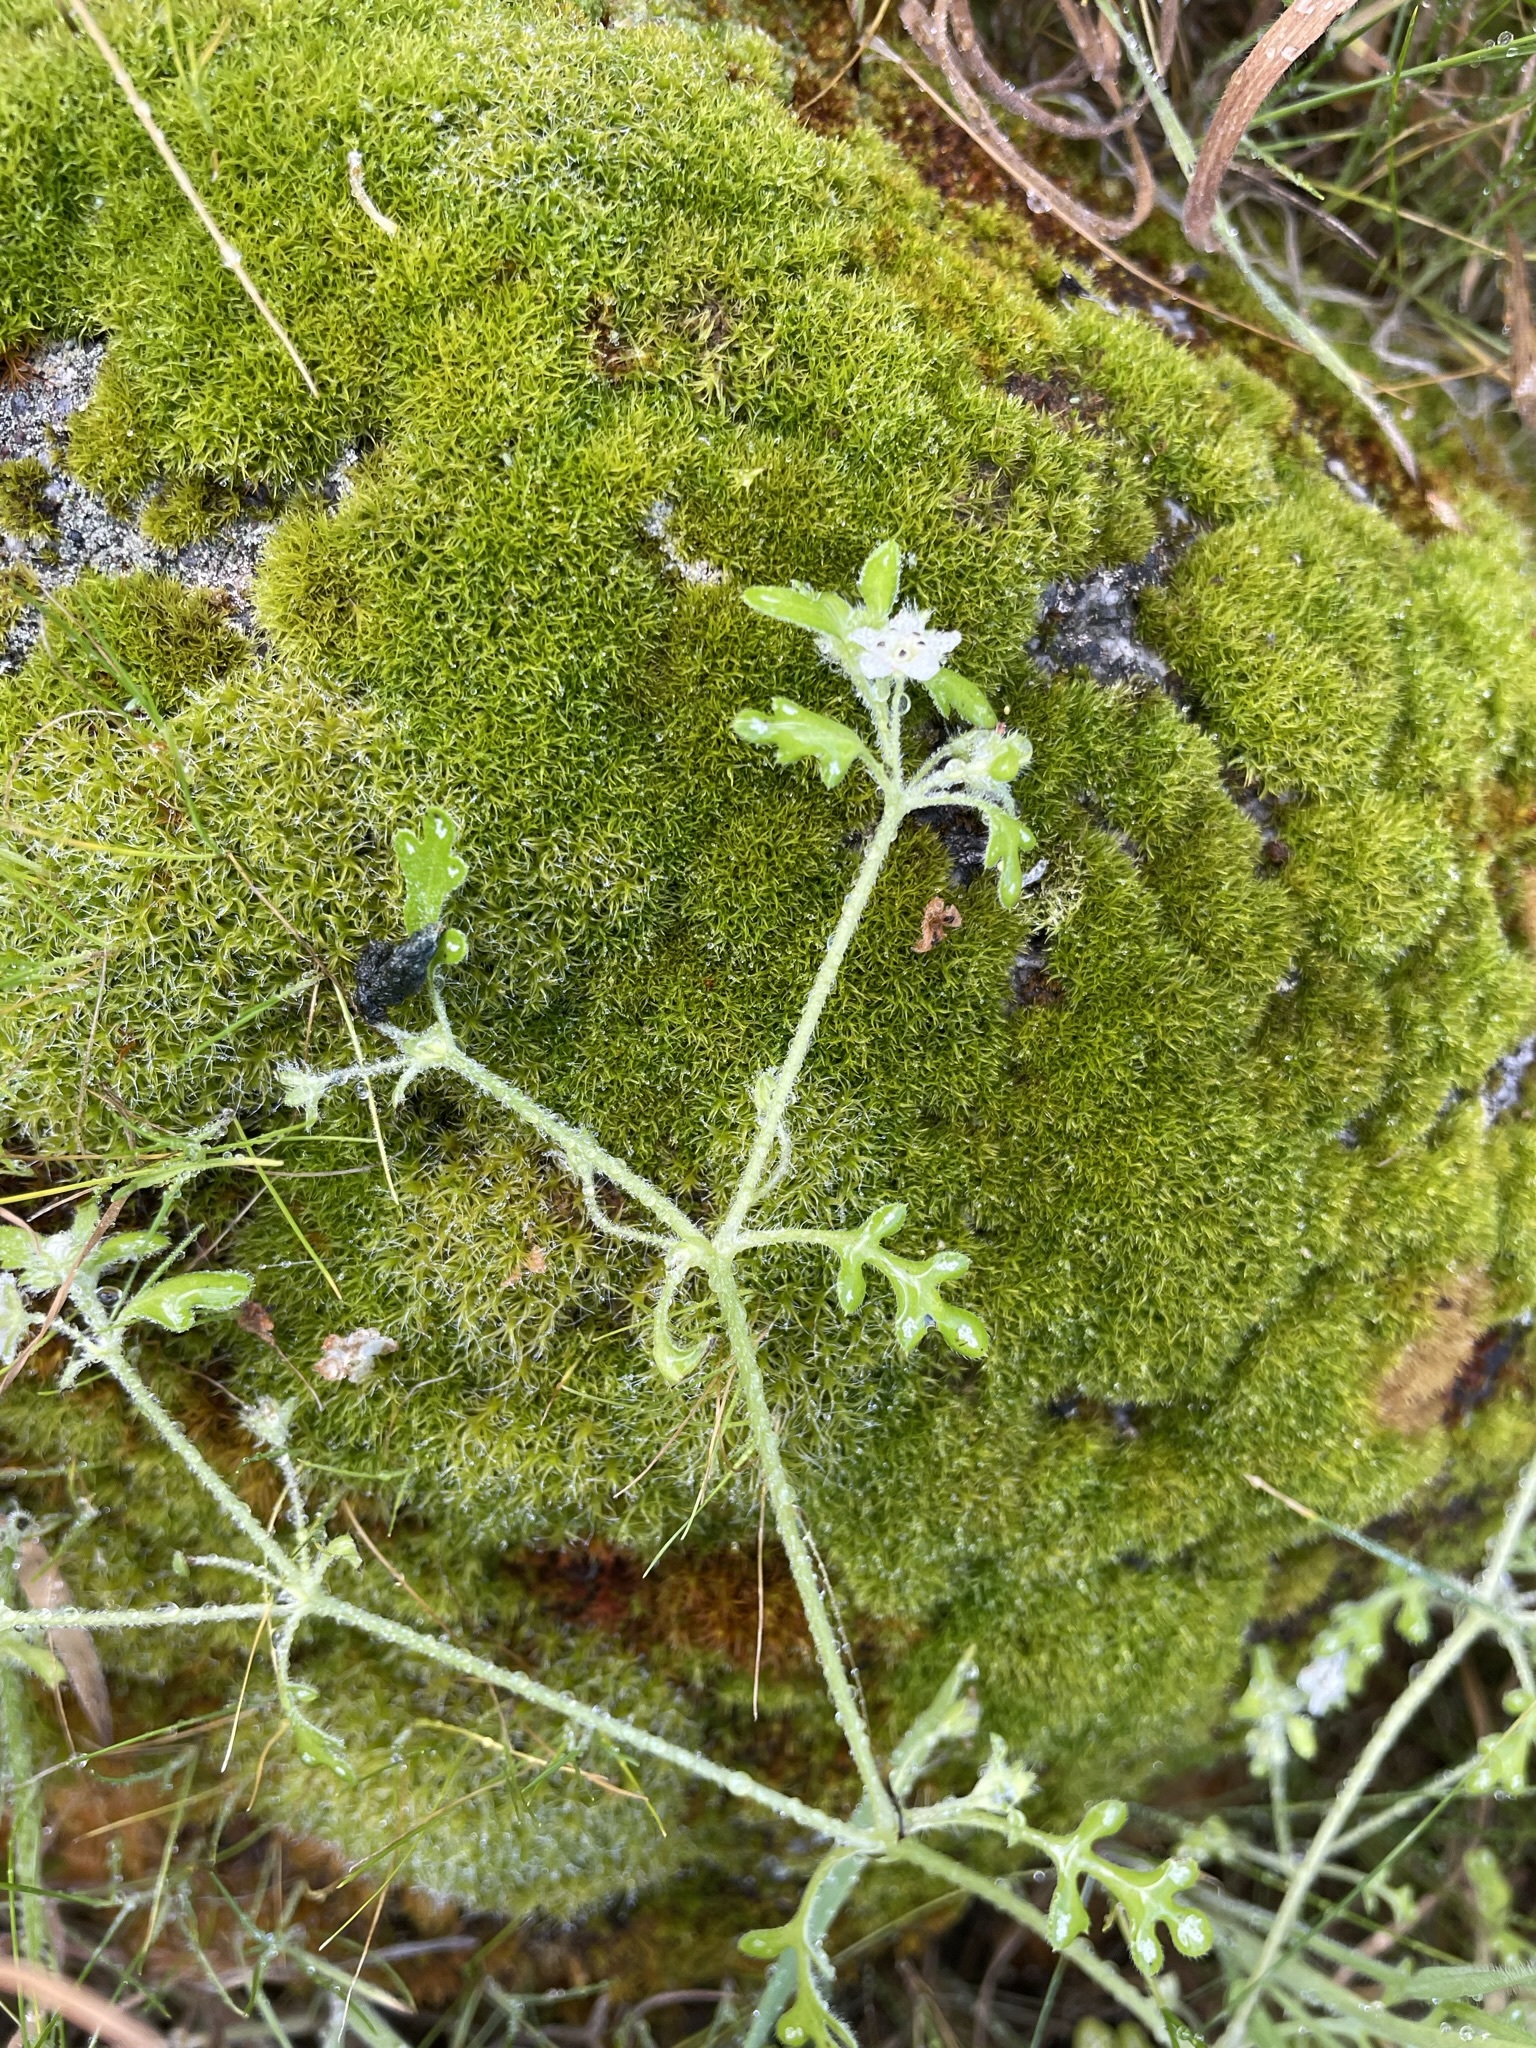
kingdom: Plantae
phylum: Tracheophyta
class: Magnoliopsida
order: Boraginales
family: Hydrophyllaceae
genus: Nemophila
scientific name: Nemophila heterophylla
